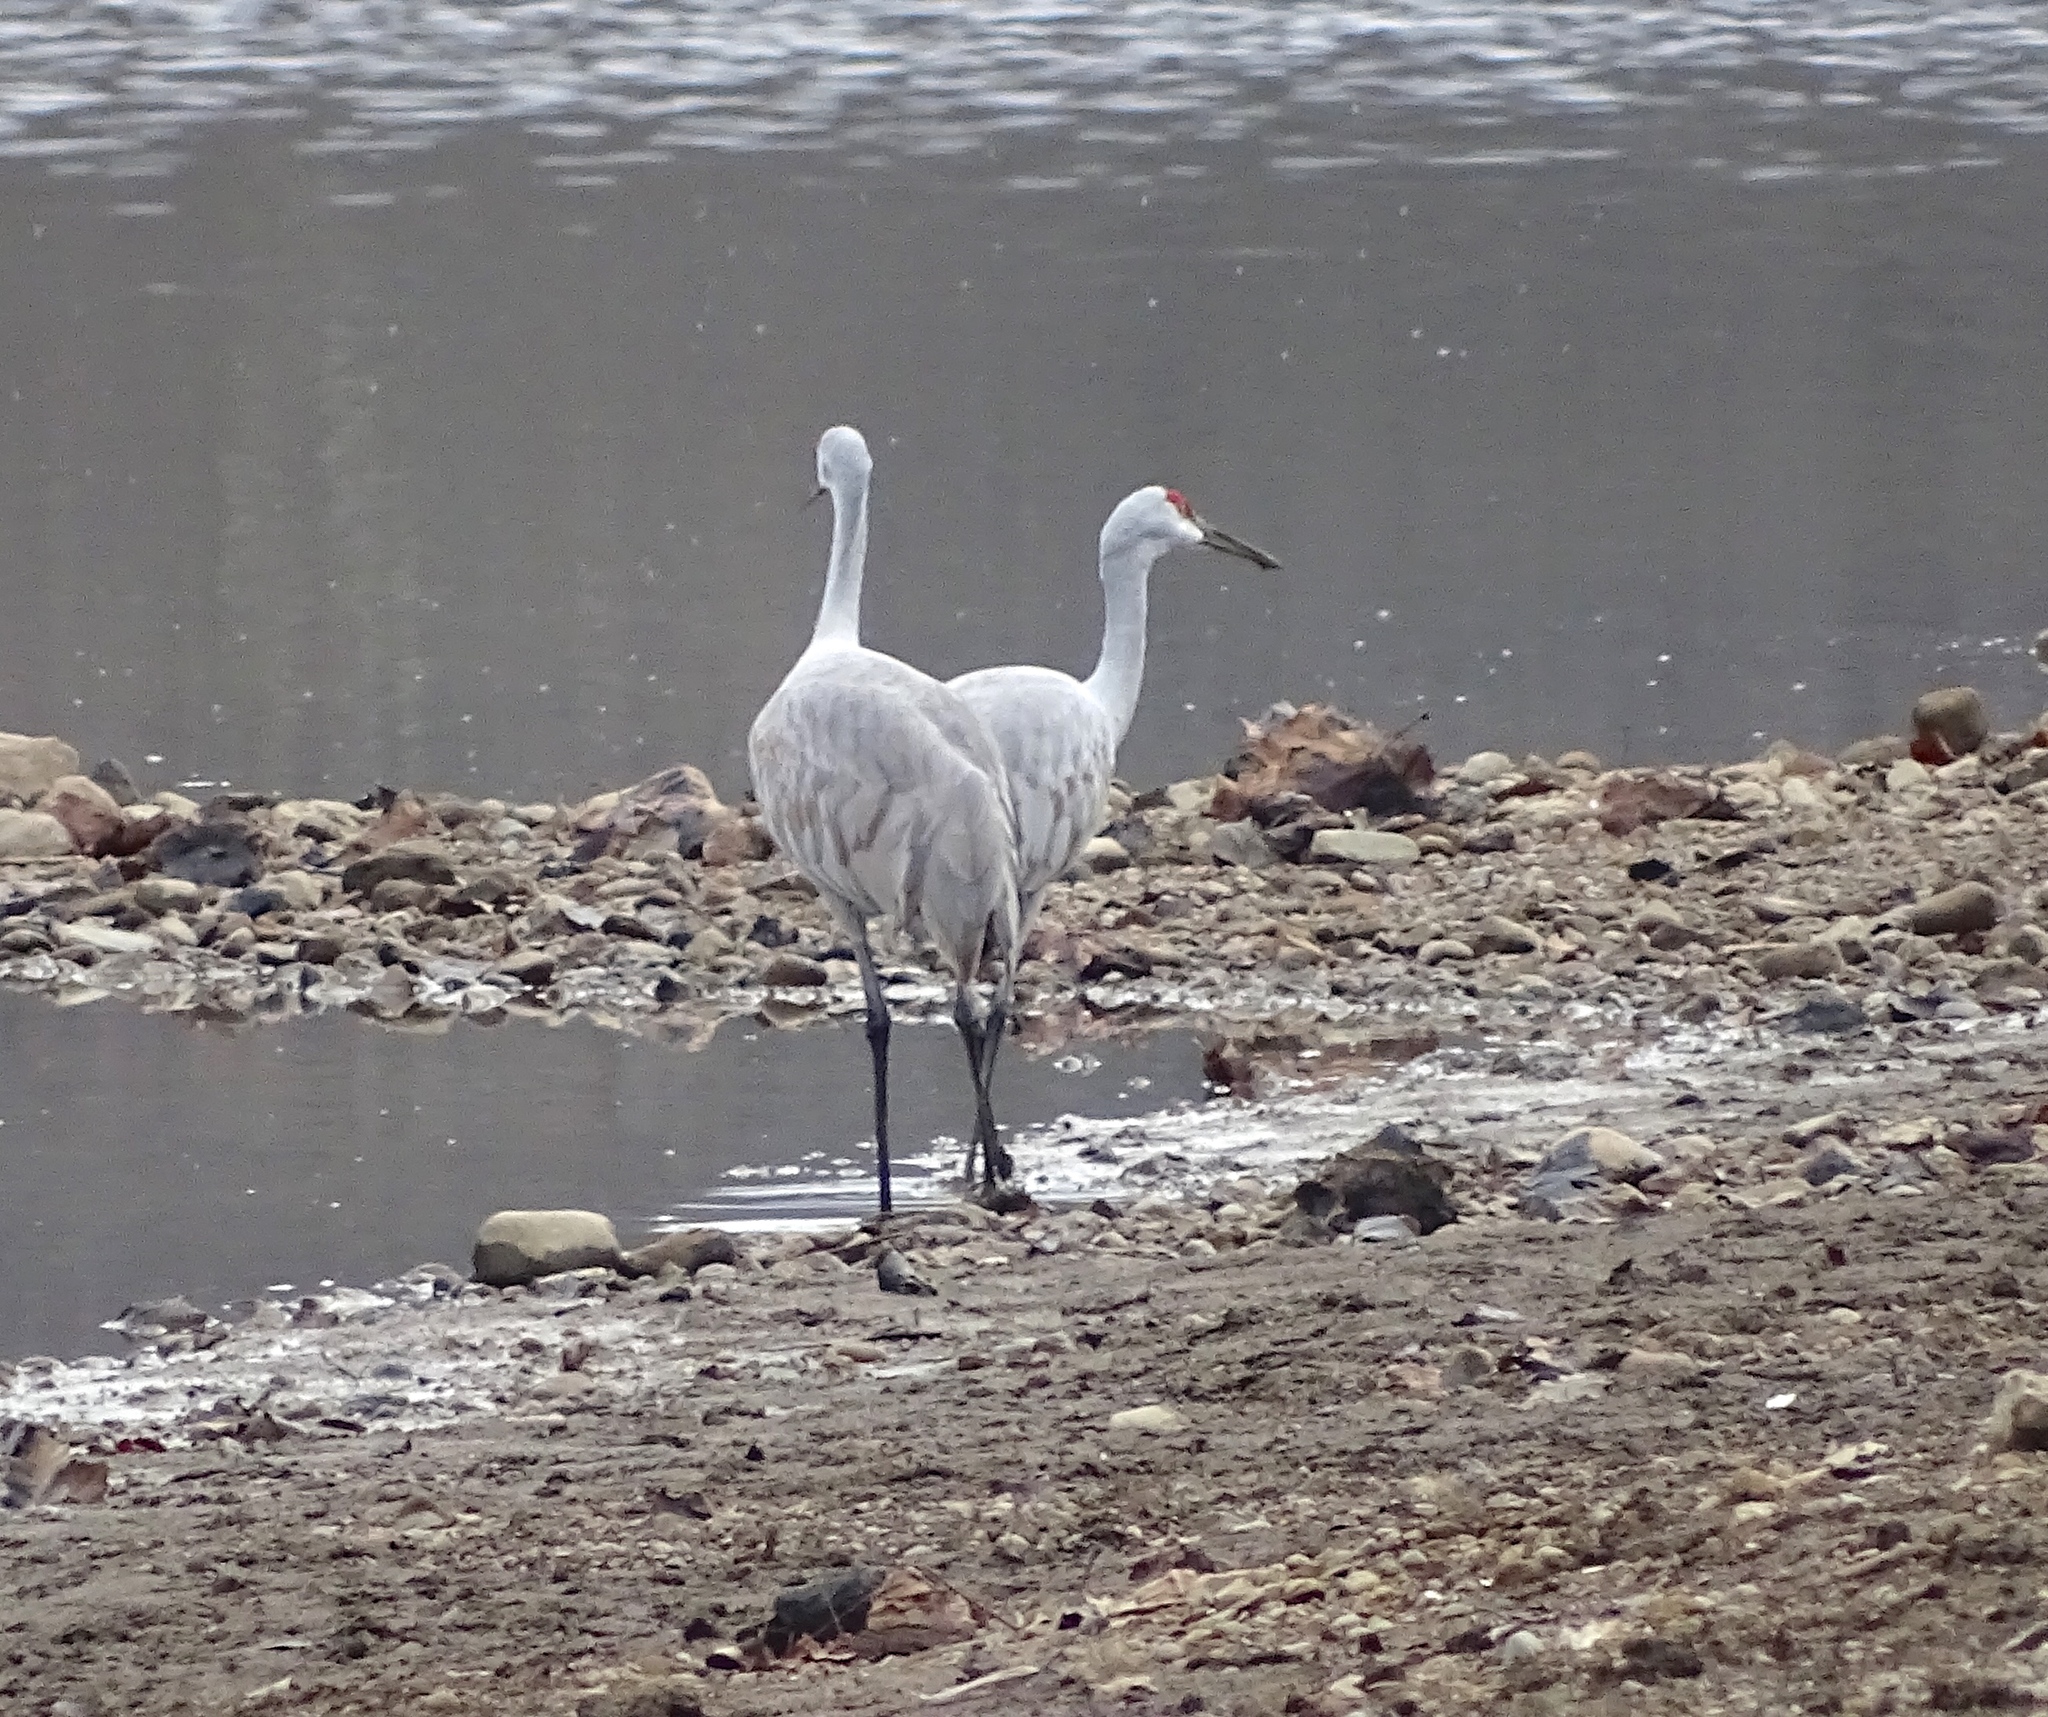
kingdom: Animalia
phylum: Chordata
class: Aves
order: Gruiformes
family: Gruidae
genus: Grus
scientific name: Grus canadensis
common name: Sandhill crane
